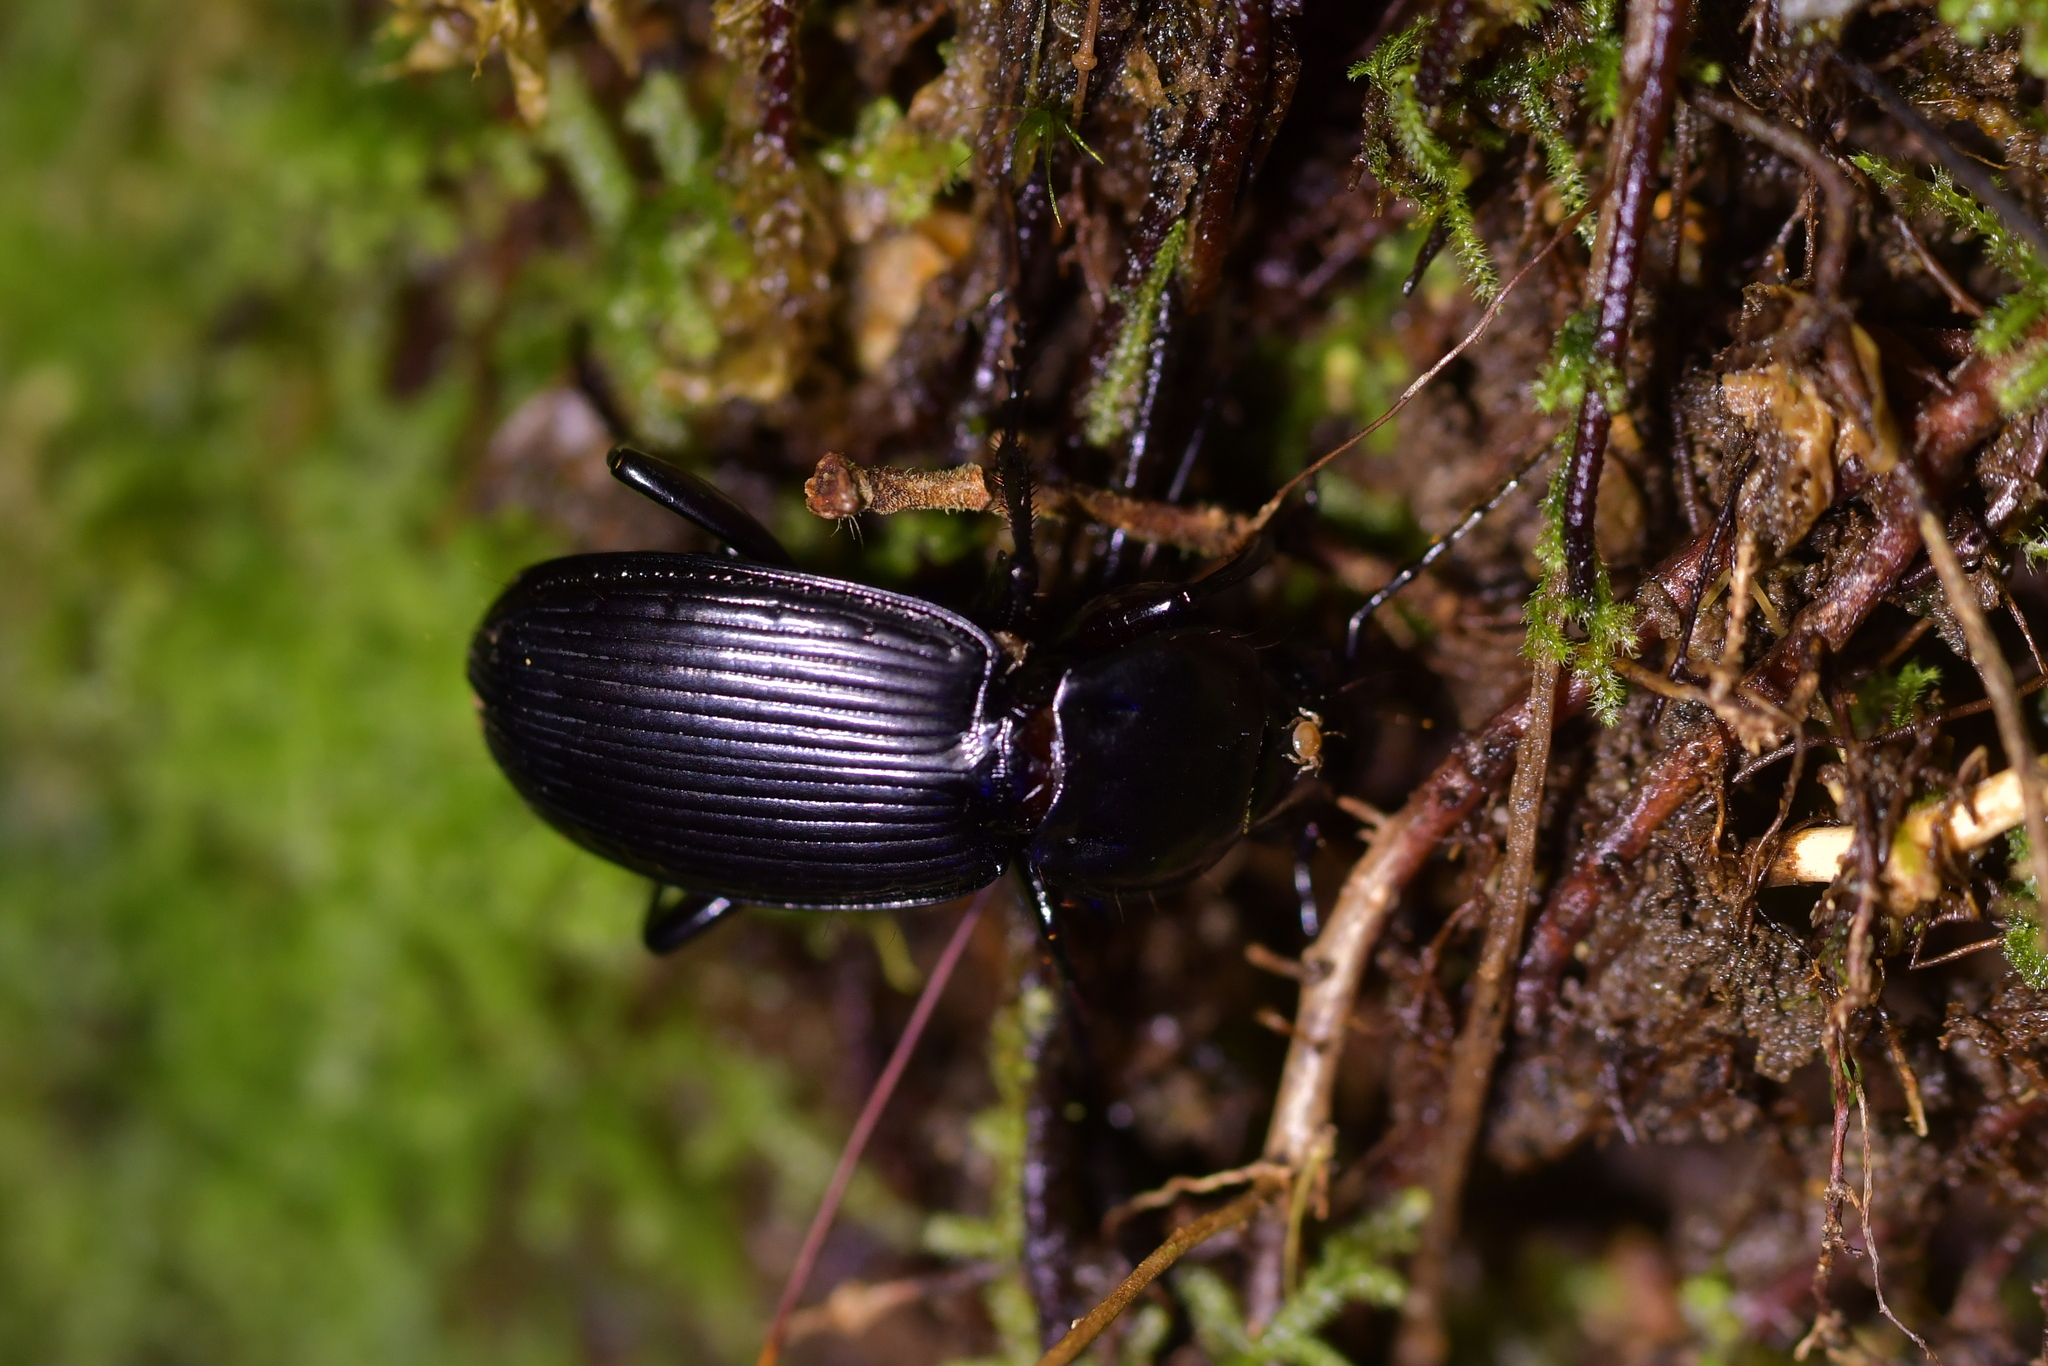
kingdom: Animalia
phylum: Arthropoda
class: Insecta
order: Coleoptera
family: Carabidae
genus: Megadromus
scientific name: Megadromus vigil
